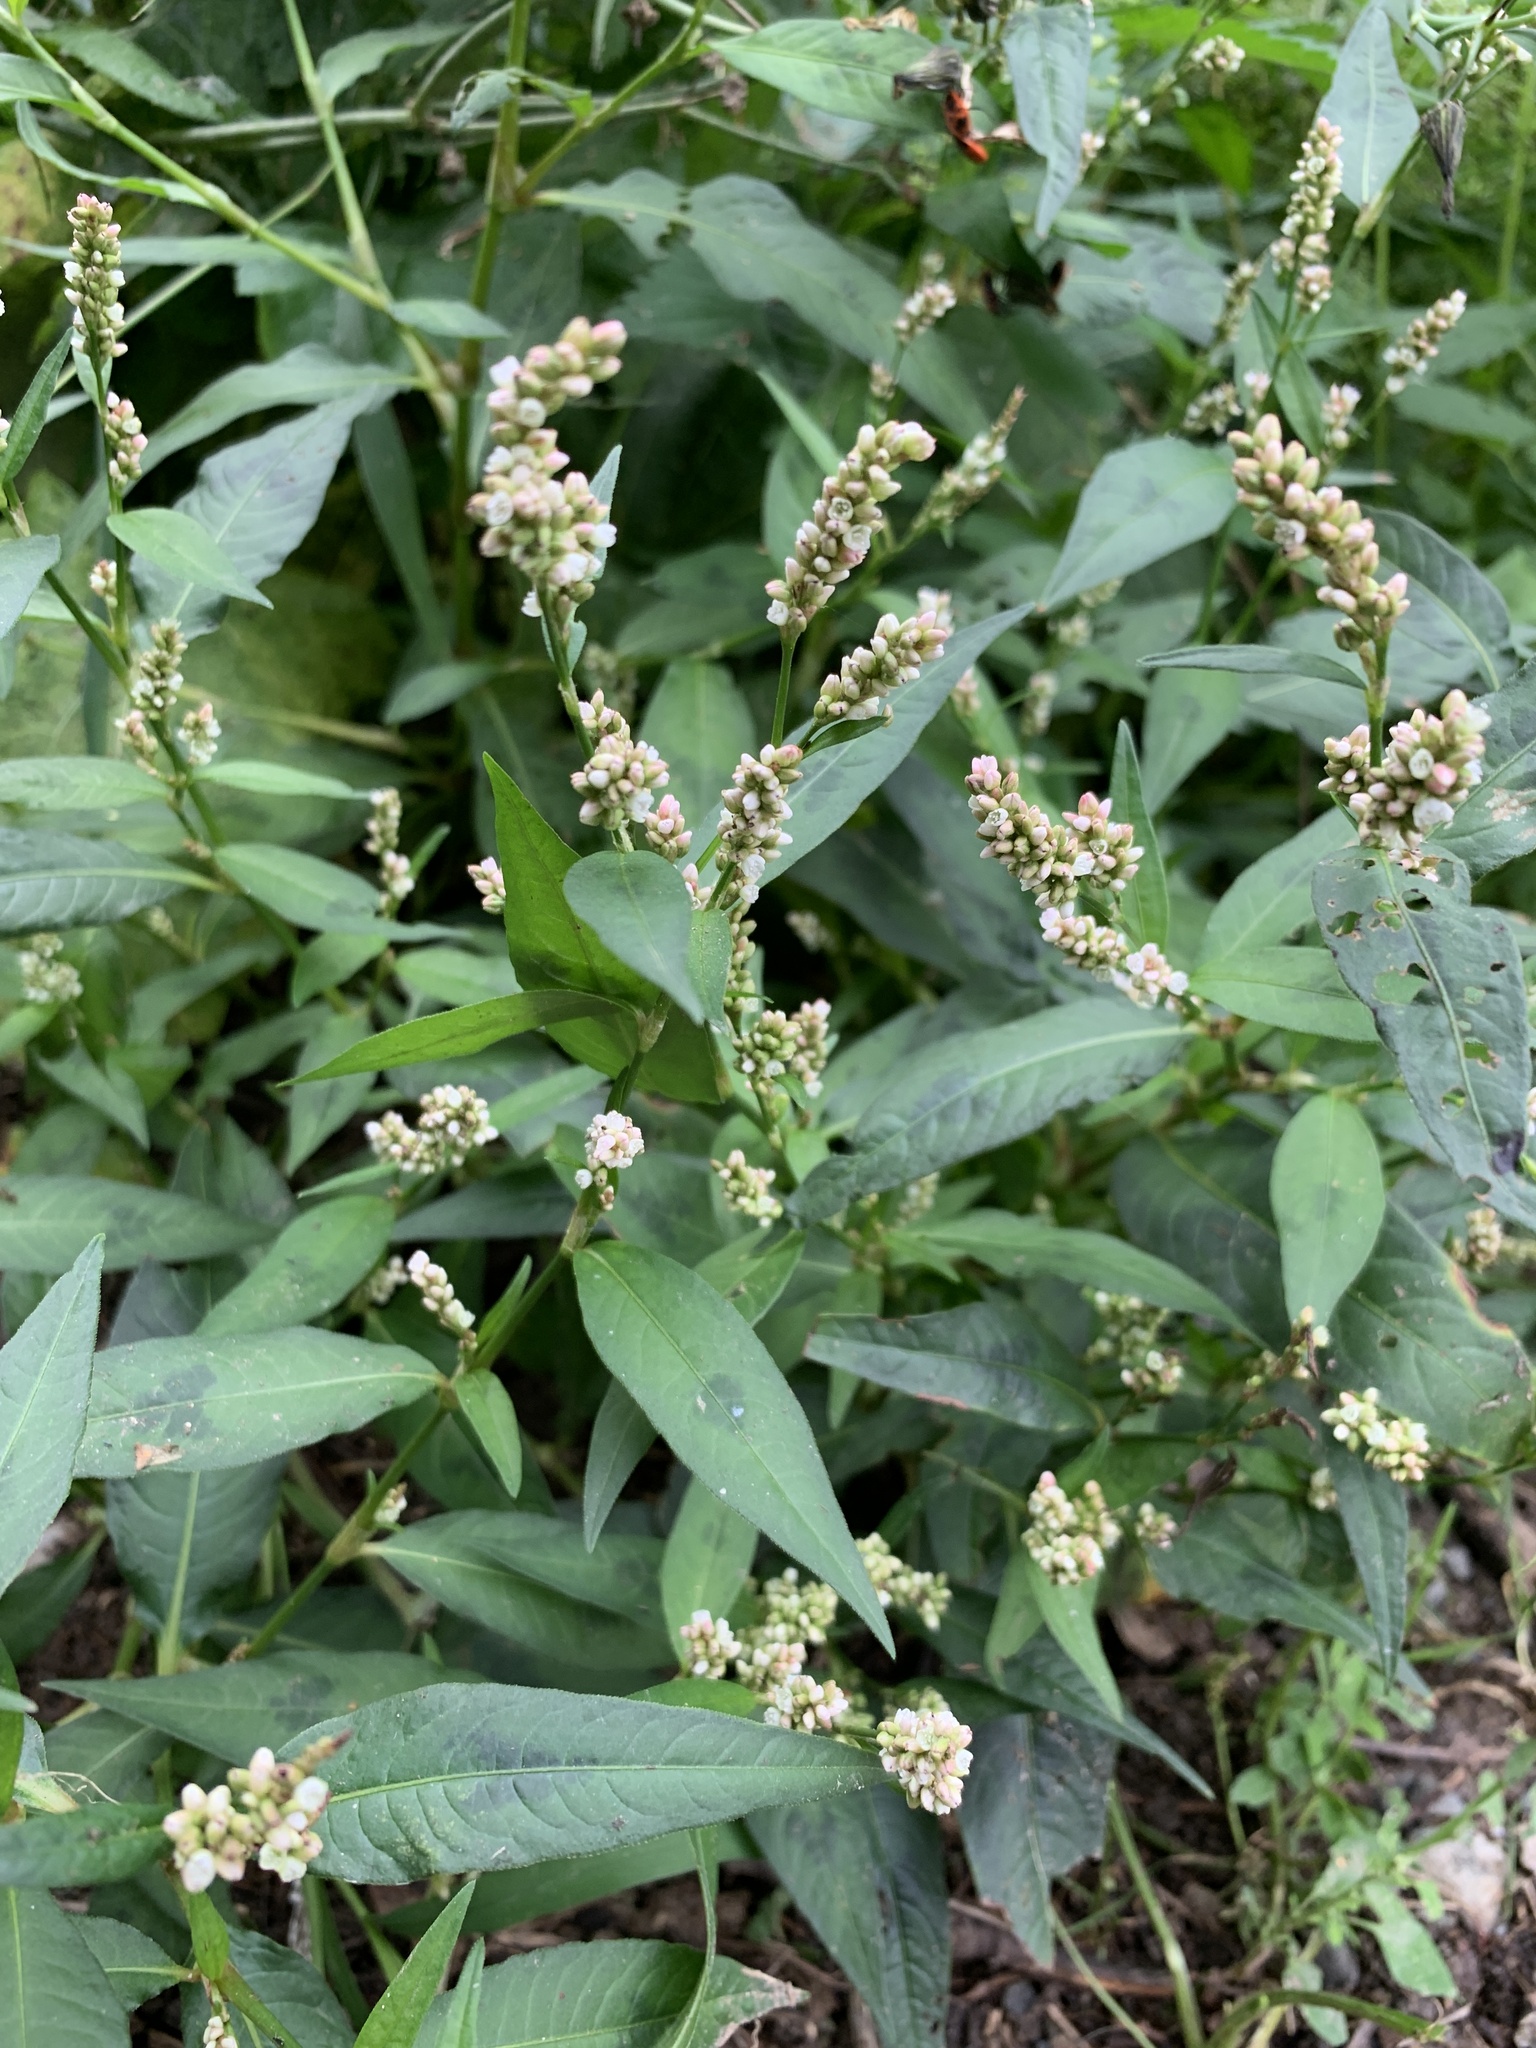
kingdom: Plantae
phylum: Tracheophyta
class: Magnoliopsida
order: Caryophyllales
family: Polygonaceae
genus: Persicaria
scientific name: Persicaria lapathifolia
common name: Curlytop knotweed
